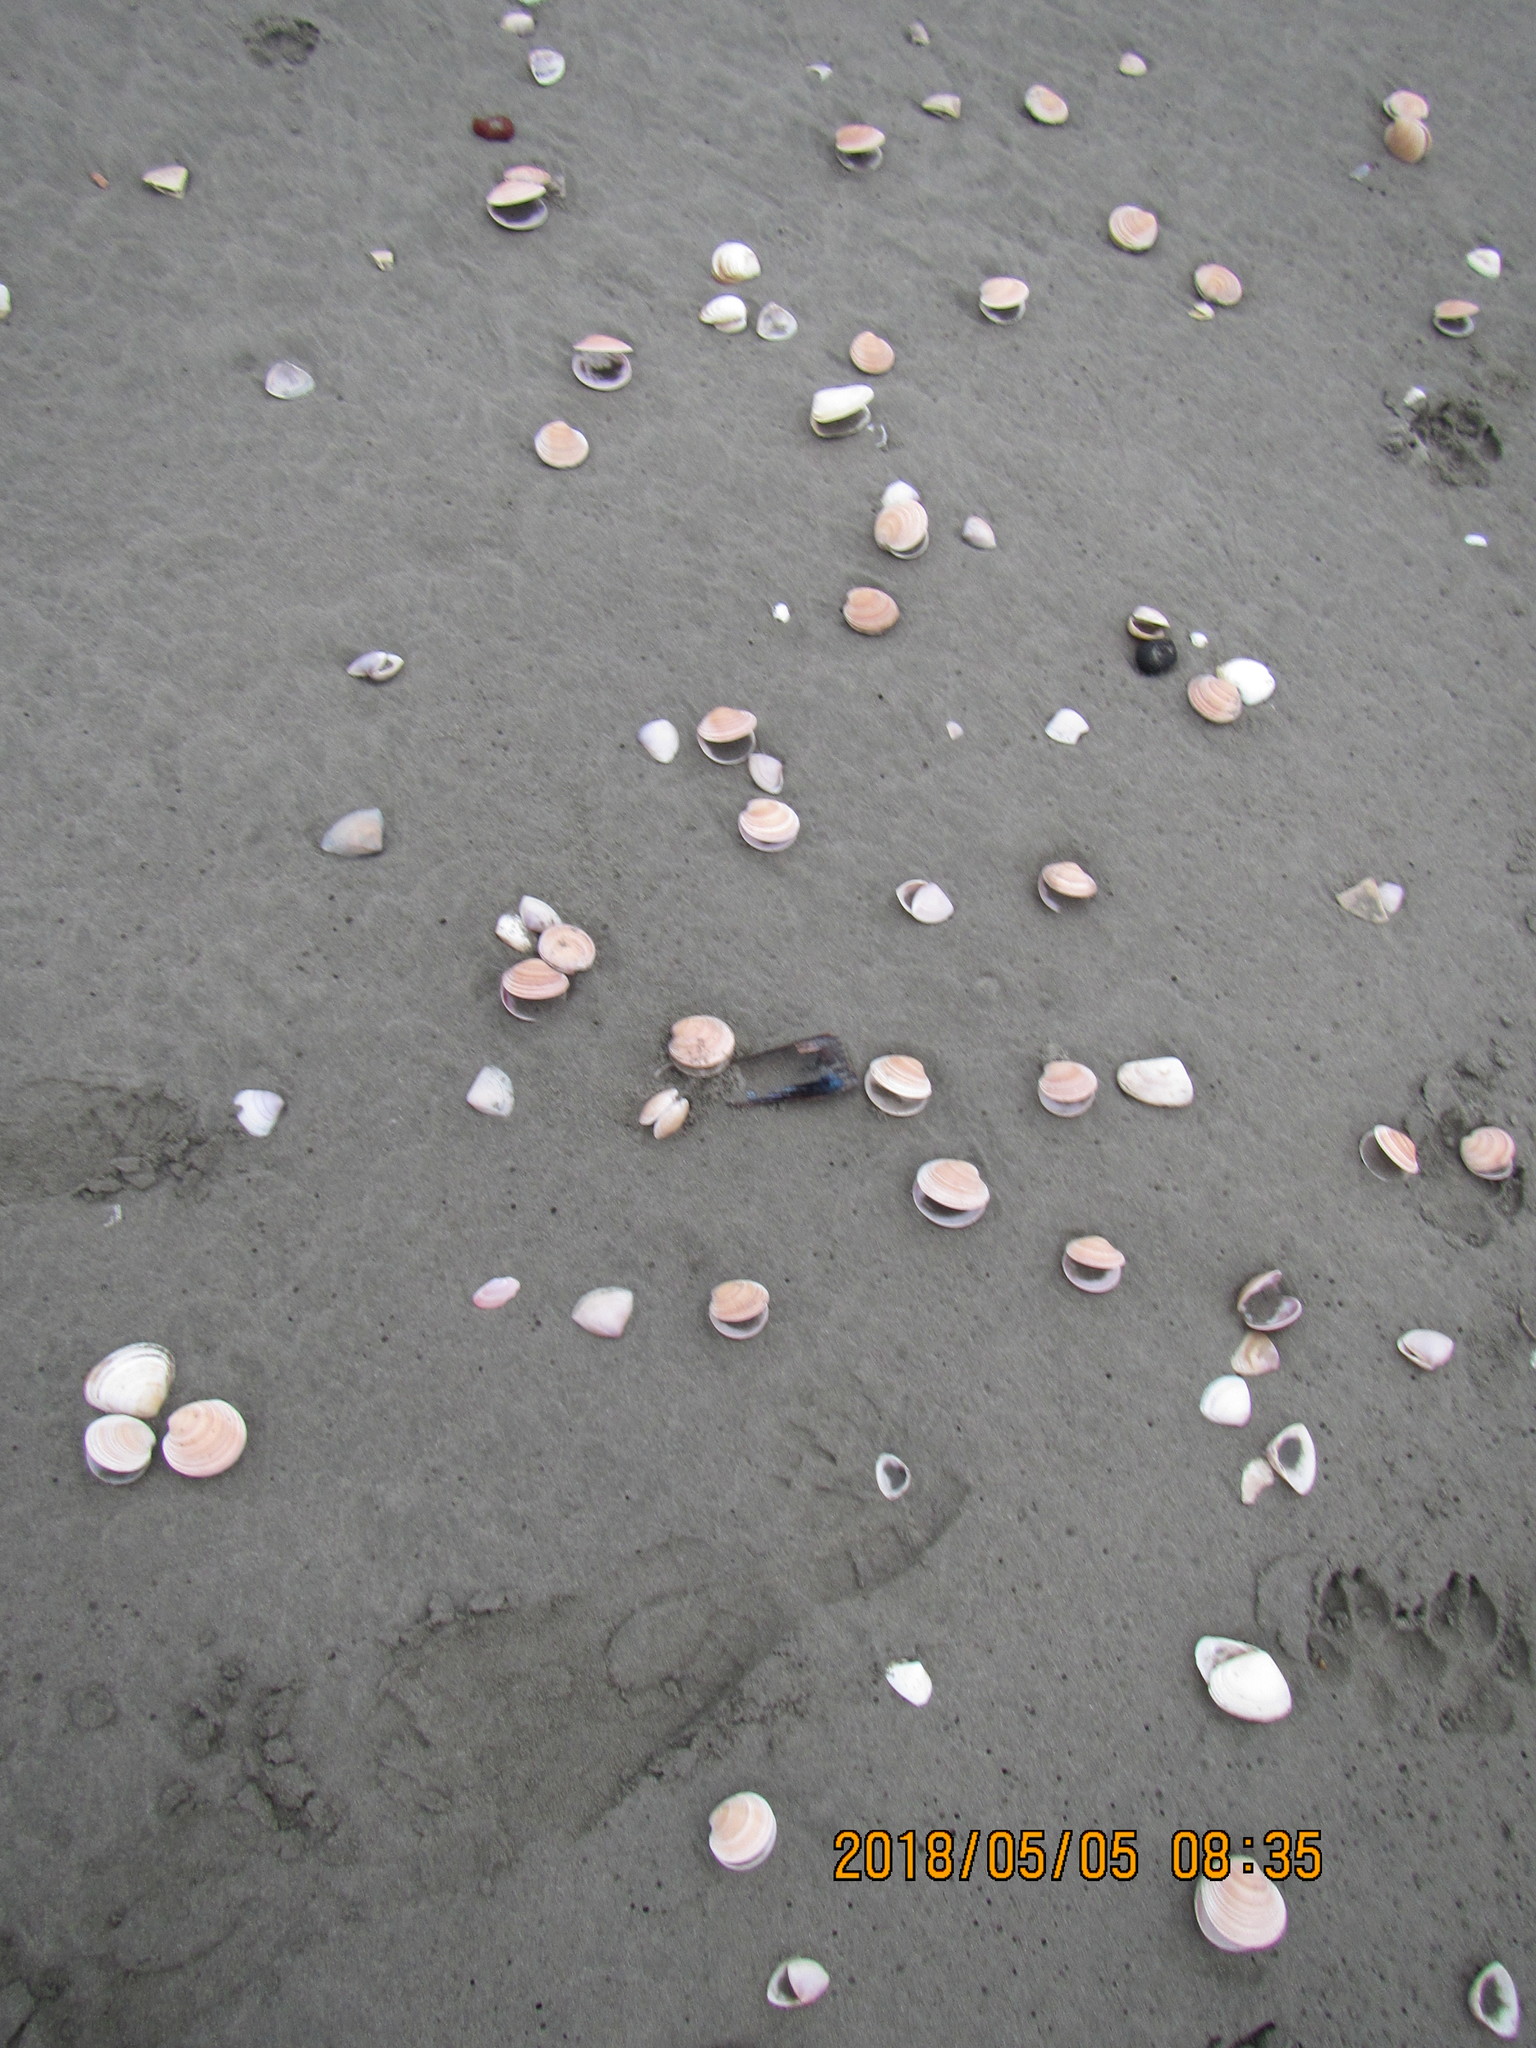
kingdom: Animalia
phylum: Mollusca
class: Bivalvia
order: Venerida
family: Veneridae
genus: Dosinia
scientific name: Dosinia anus
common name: Old-woman dosinia
